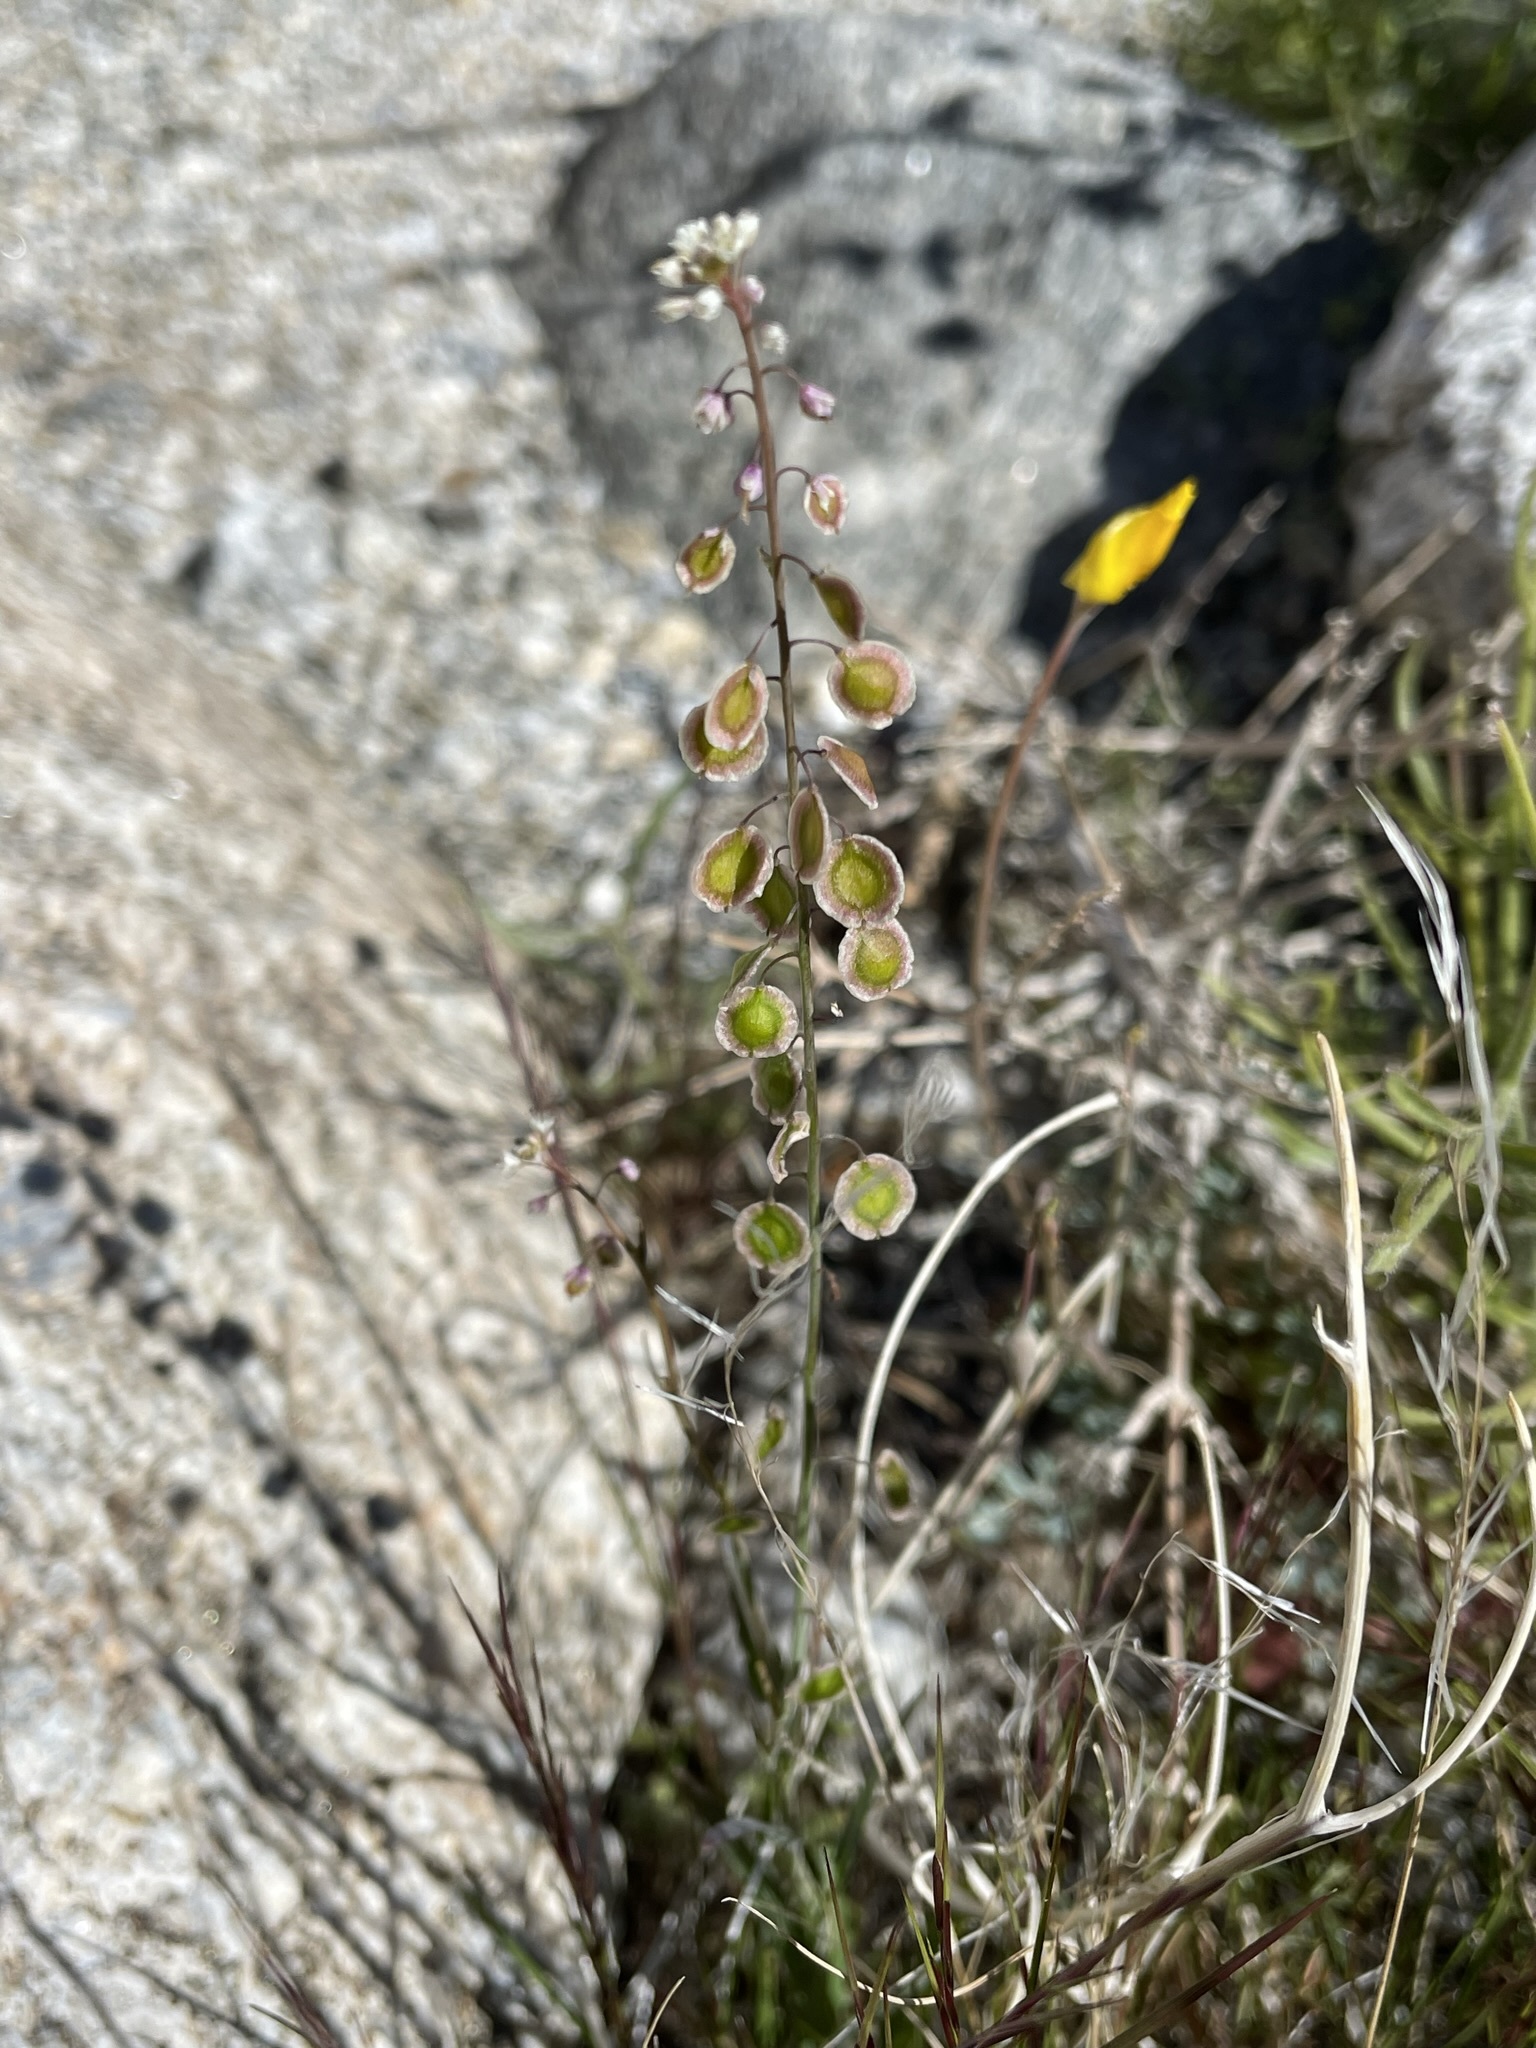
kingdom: Plantae
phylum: Tracheophyta
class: Magnoliopsida
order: Brassicales
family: Brassicaceae
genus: Thysanocarpus
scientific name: Thysanocarpus curvipes
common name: Sand fringepod
